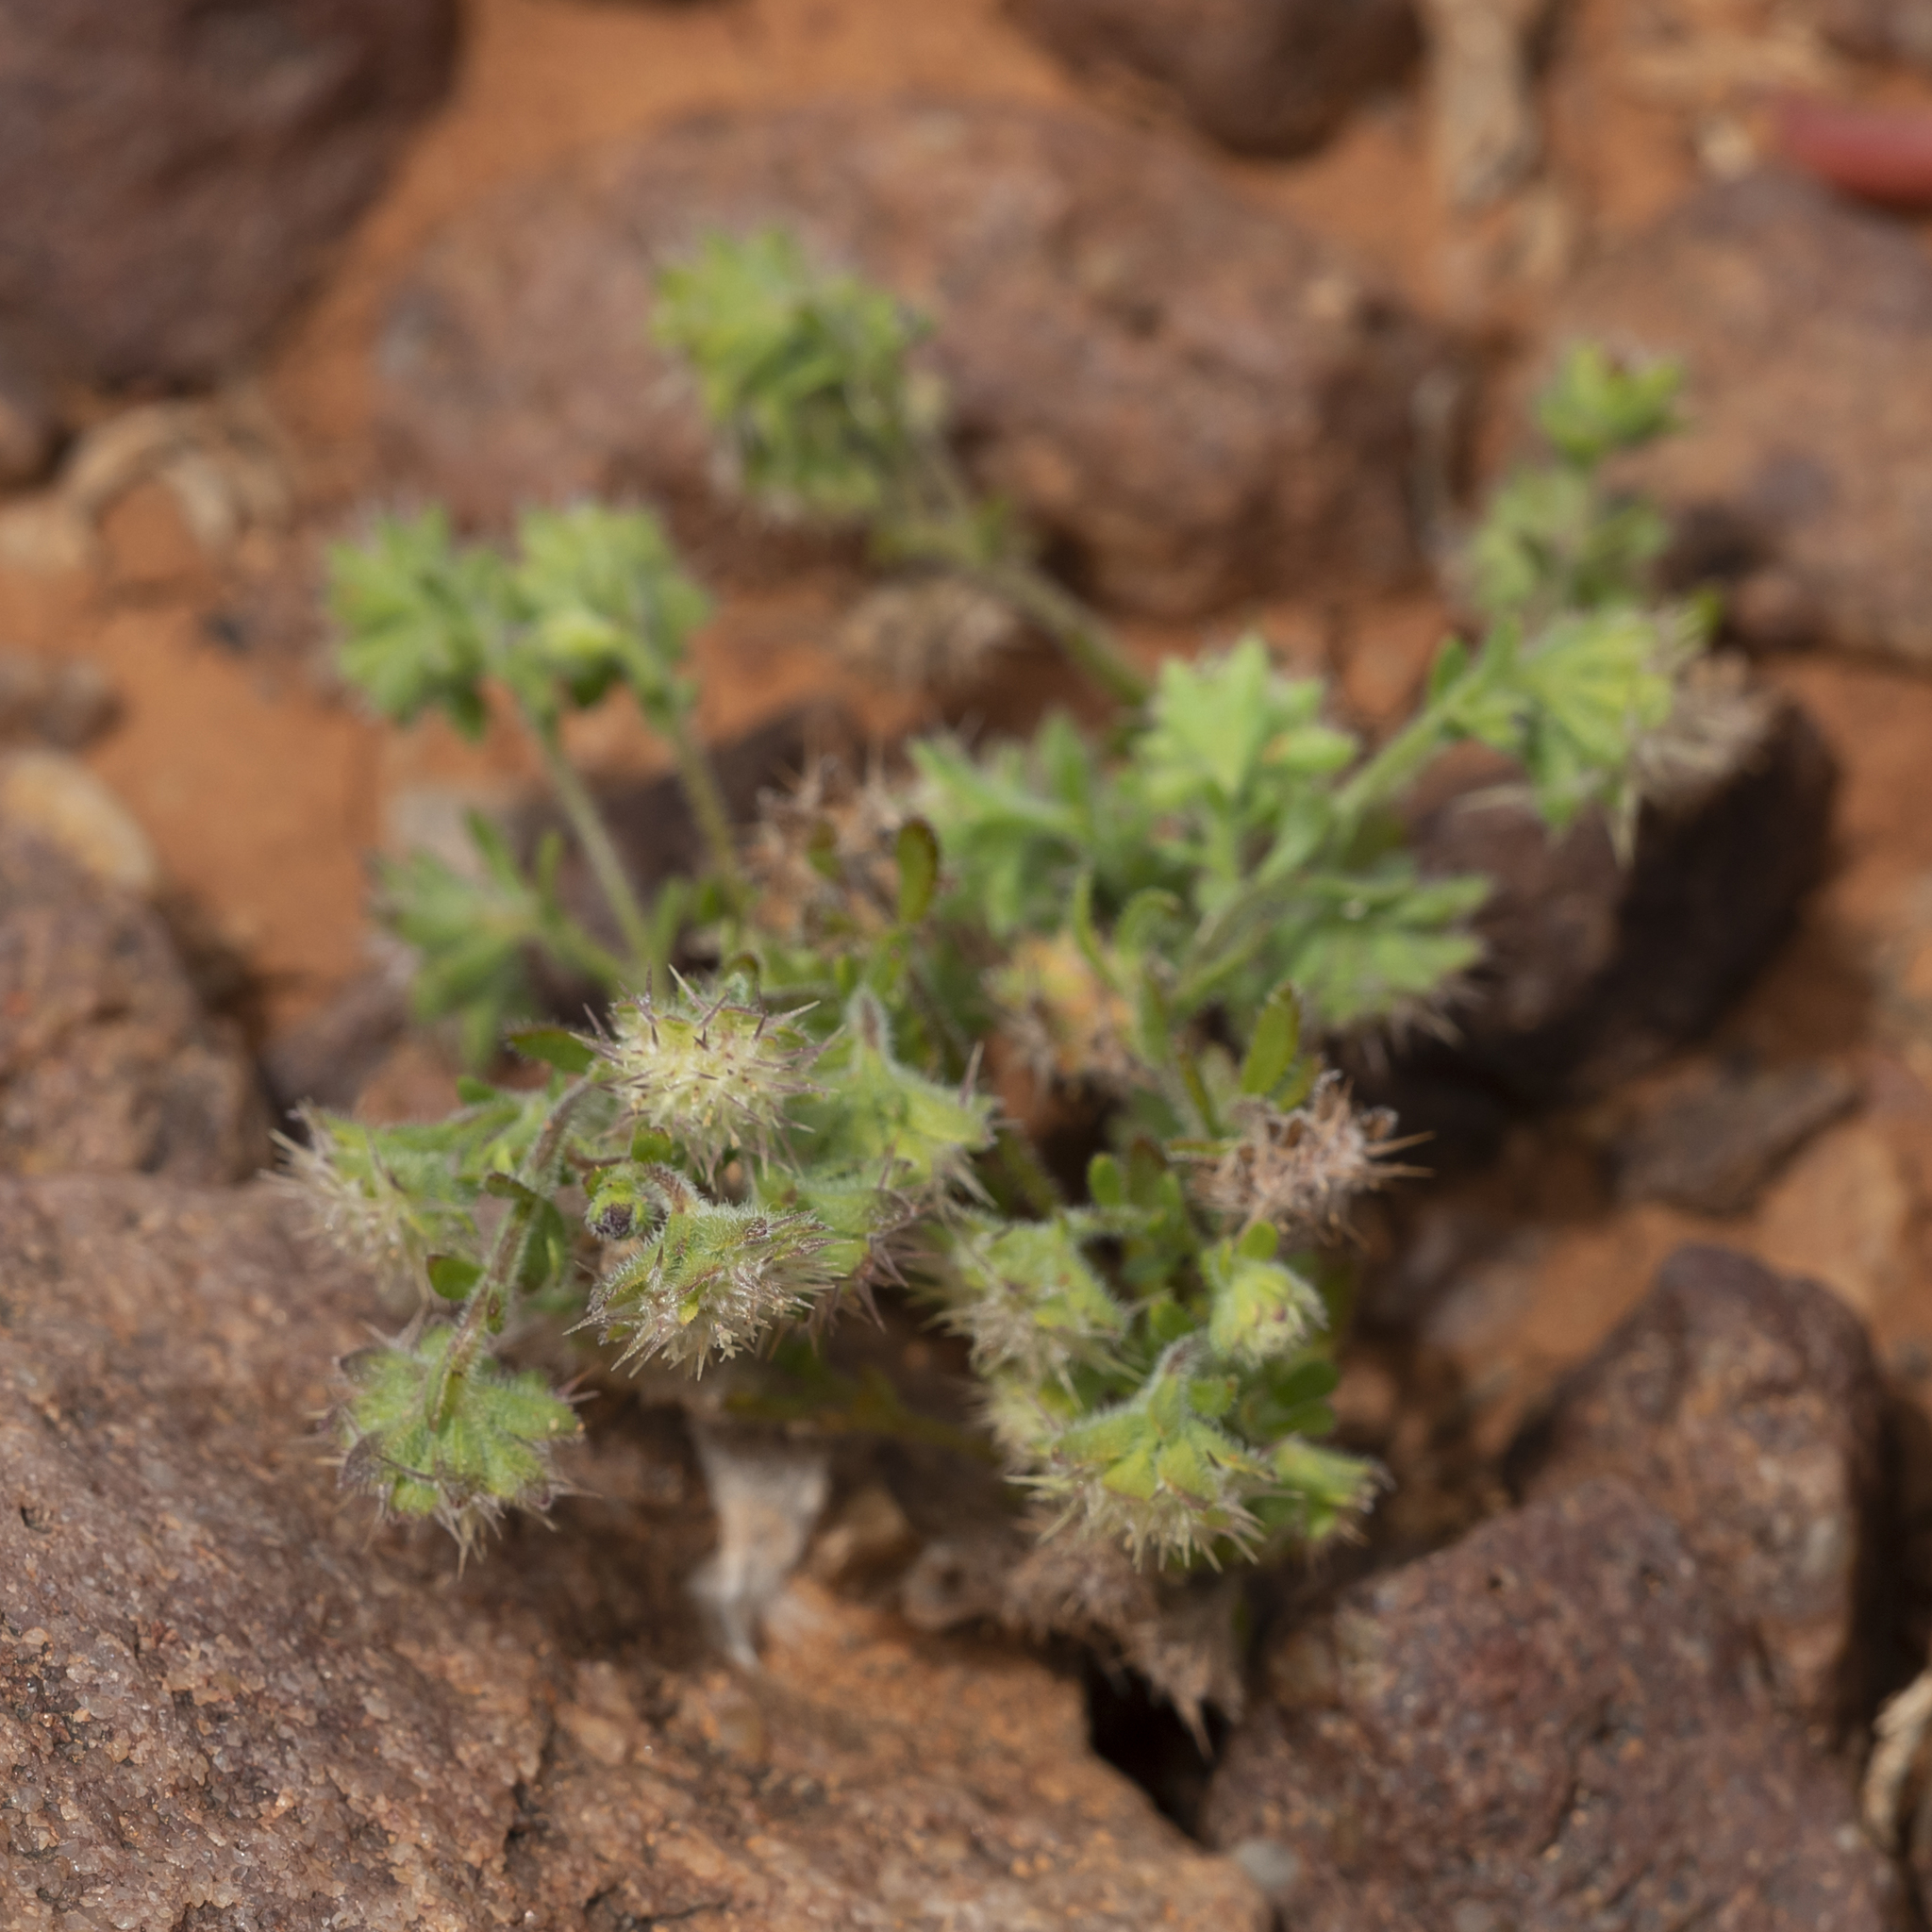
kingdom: Plantae
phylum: Tracheophyta
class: Magnoliopsida
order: Asterales
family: Asteraceae
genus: Calotis
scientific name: Calotis hispidula
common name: Bogan-flea
